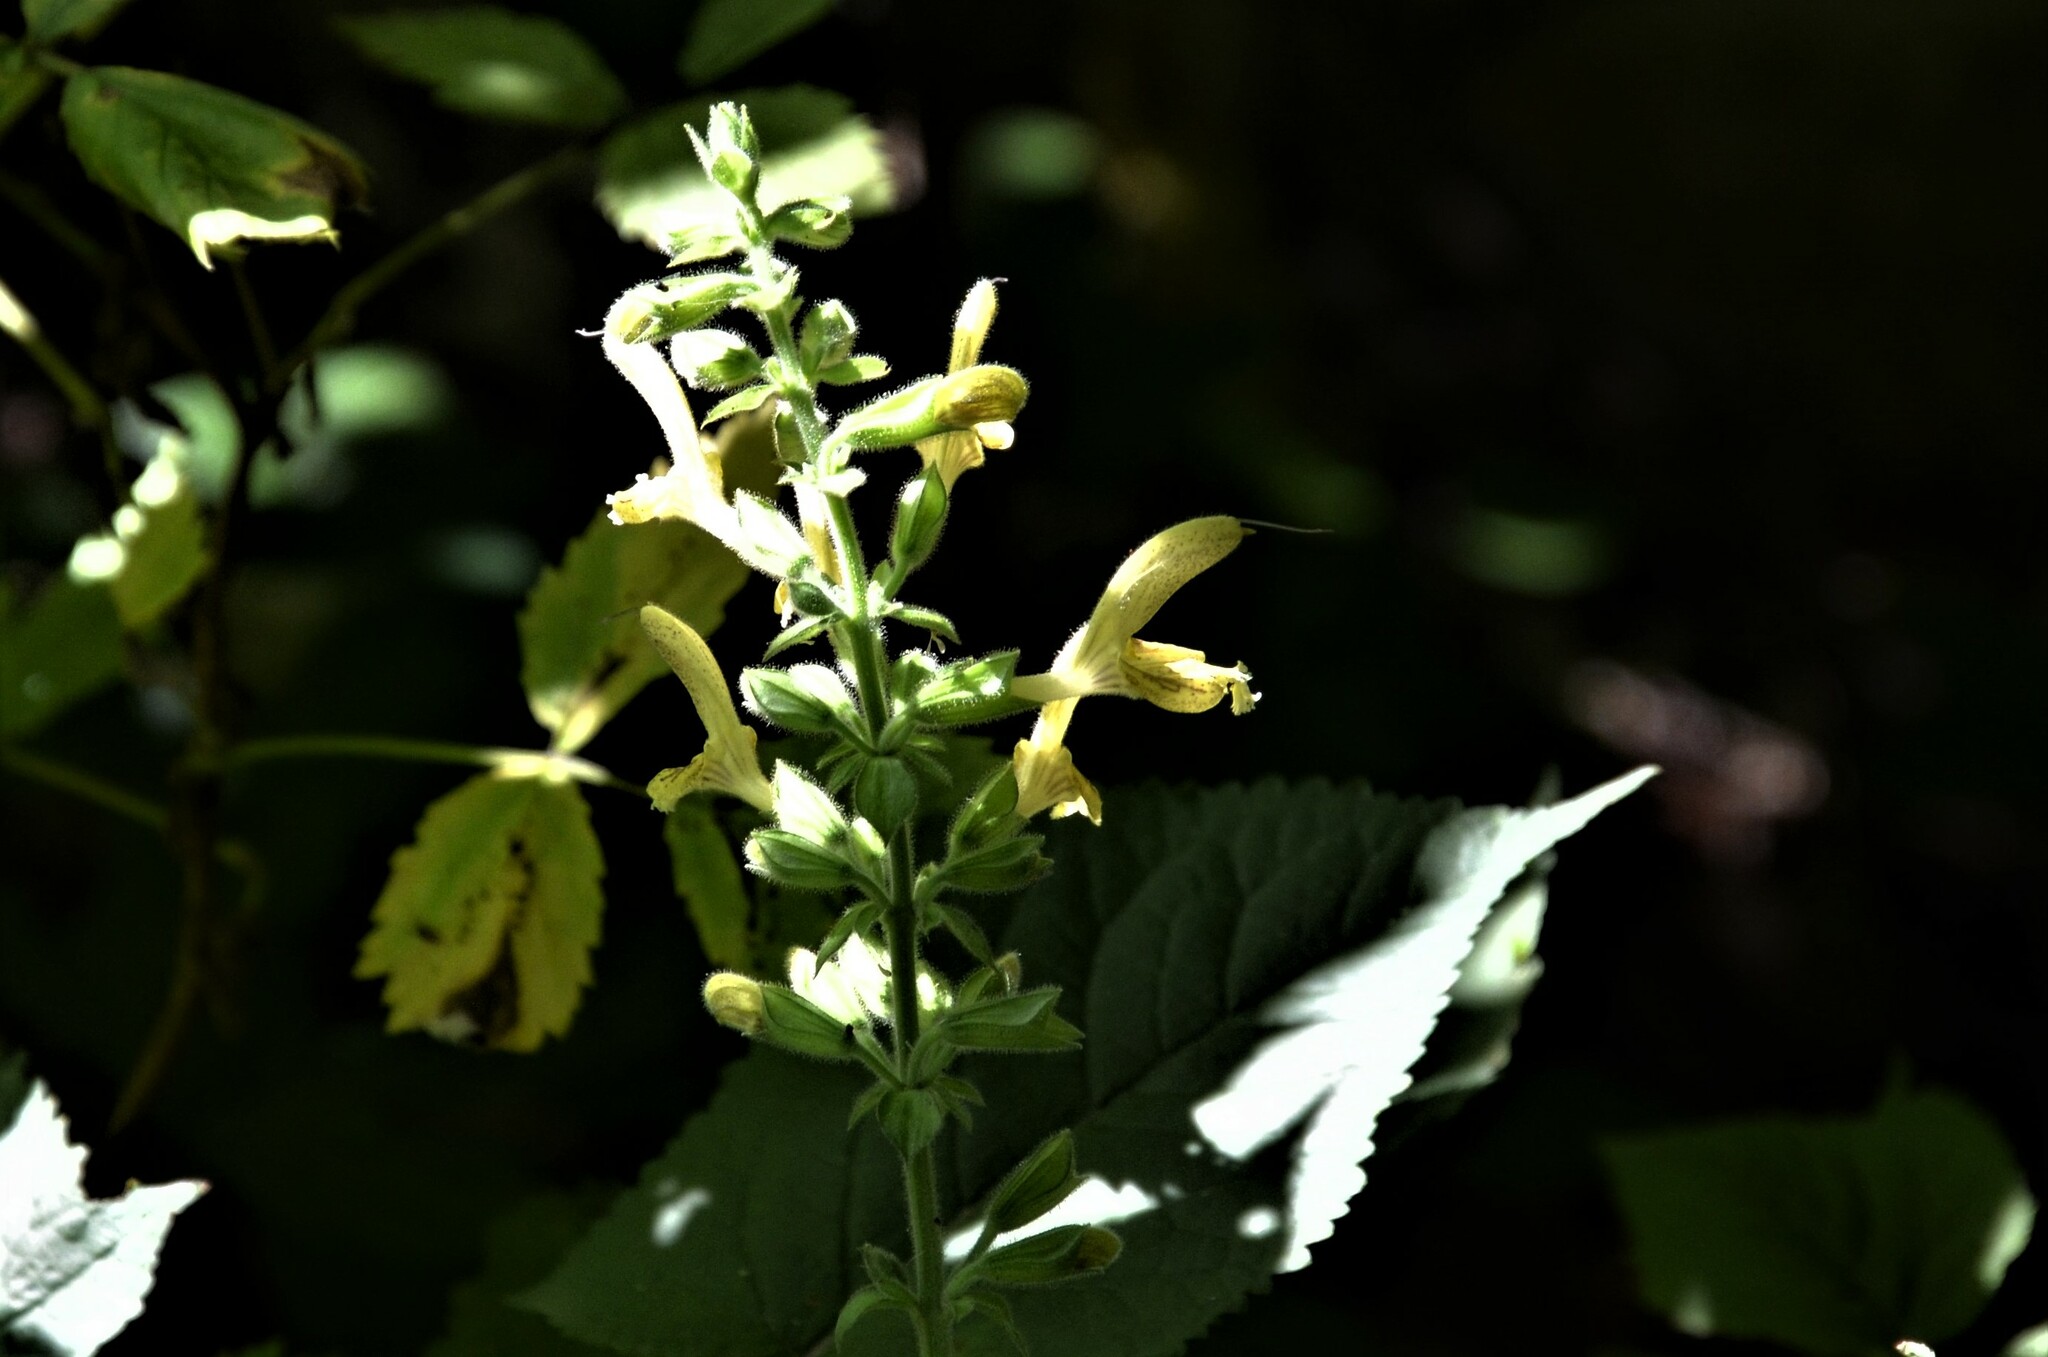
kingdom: Plantae
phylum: Tracheophyta
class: Magnoliopsida
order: Lamiales
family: Lamiaceae
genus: Salvia
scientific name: Salvia glutinosa
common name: Sticky clary
